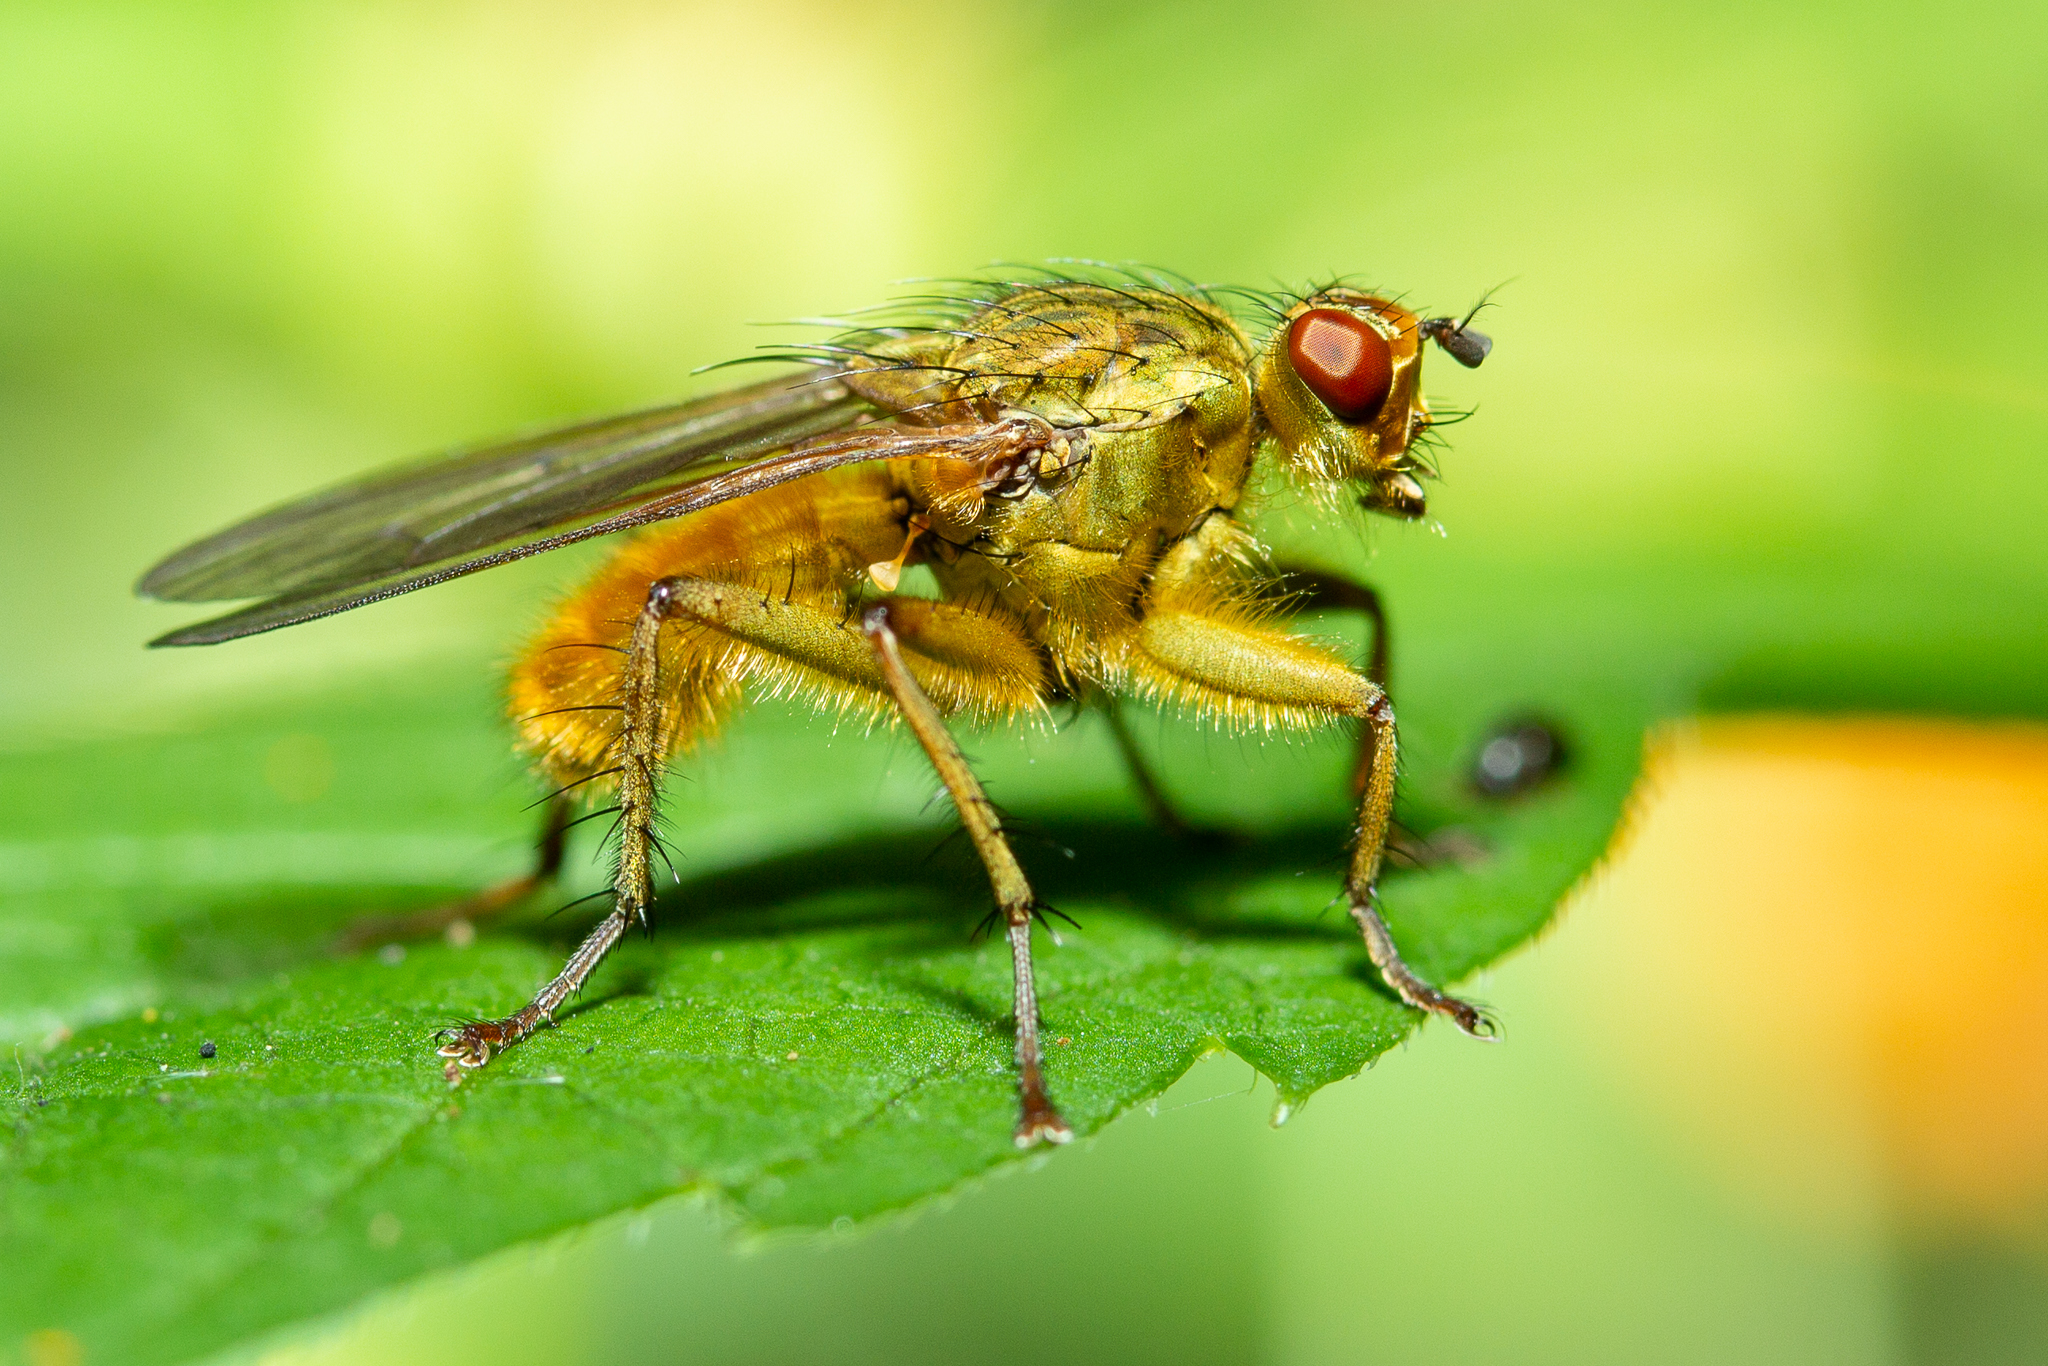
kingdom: Animalia
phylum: Arthropoda
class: Insecta
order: Diptera
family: Scathophagidae
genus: Scathophaga
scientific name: Scathophaga stercoraria
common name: Yellow dung fly
